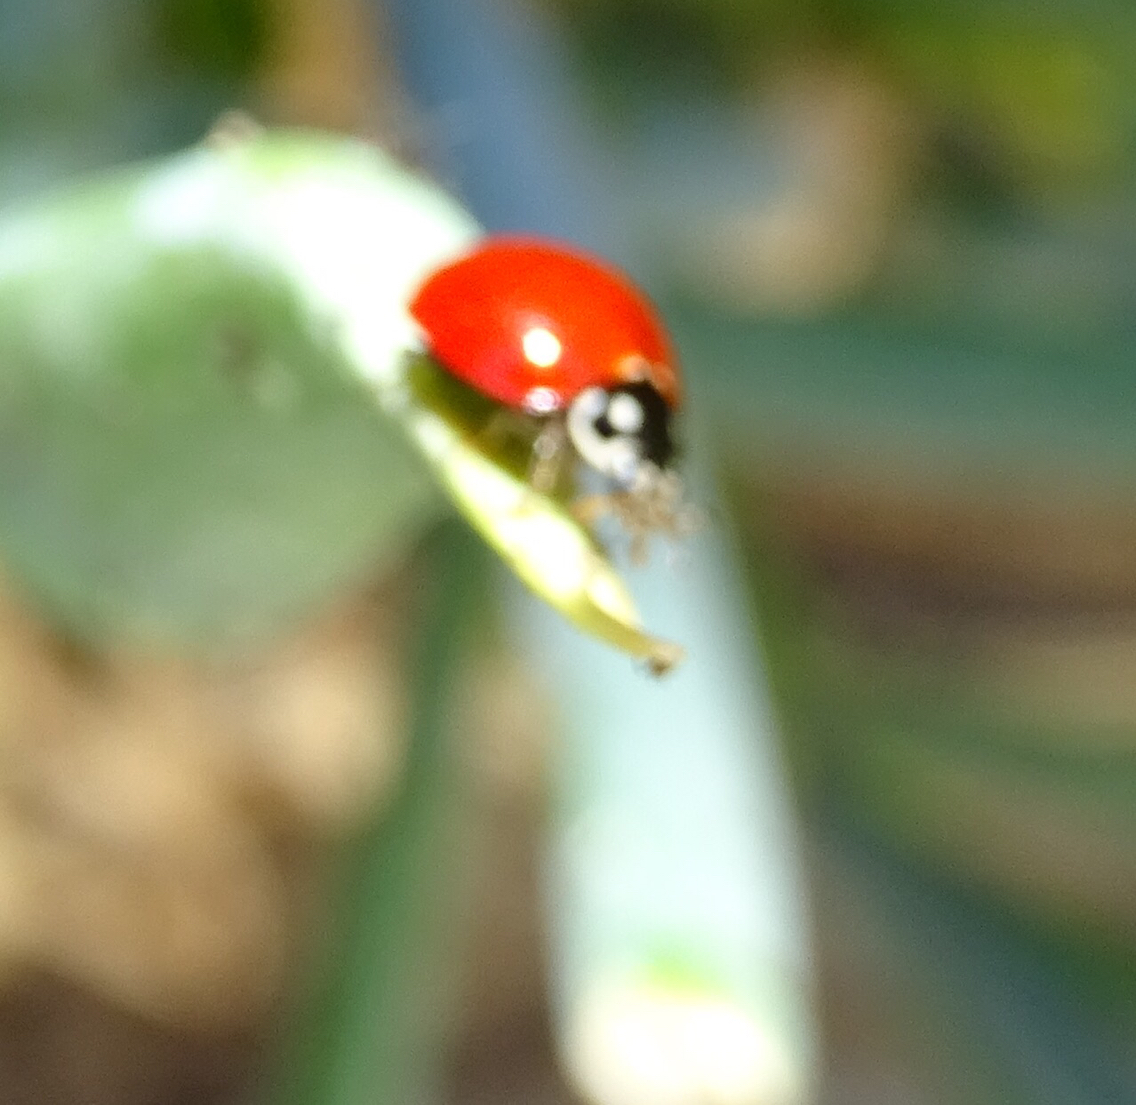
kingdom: Animalia
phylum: Arthropoda
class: Insecta
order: Coleoptera
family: Coccinellidae
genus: Cycloneda
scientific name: Cycloneda sanguinea
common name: Ladybird beetle
